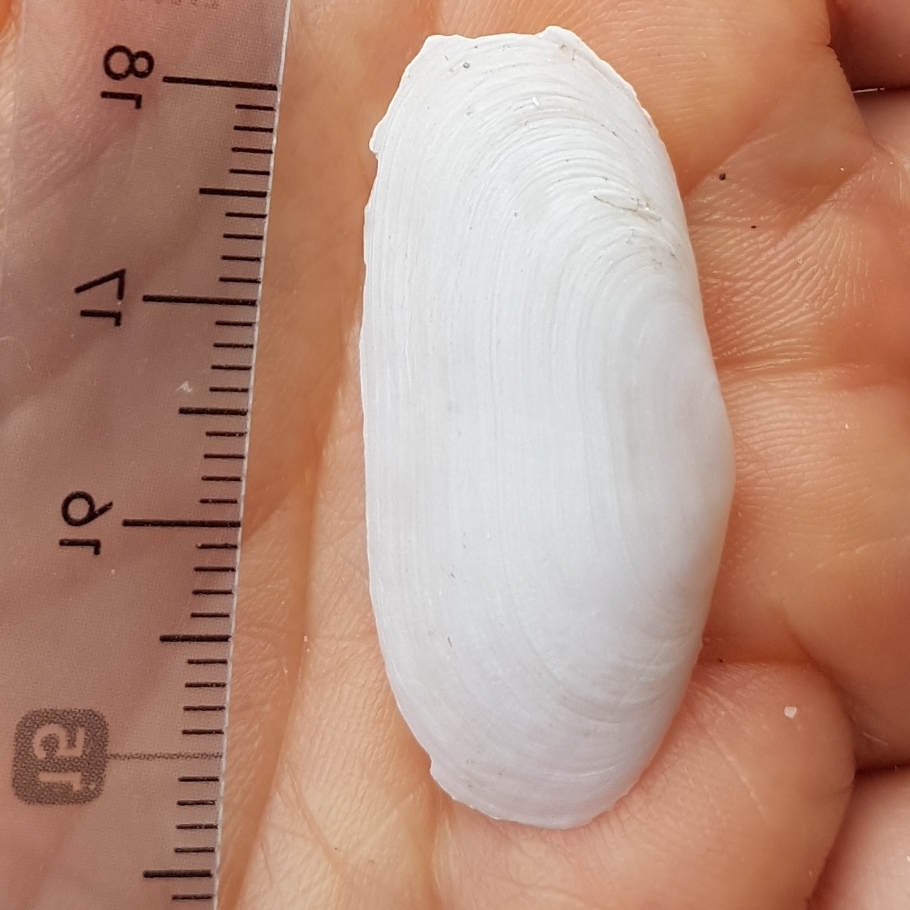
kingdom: Animalia
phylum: Mollusca
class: Bivalvia
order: Cardiida
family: Solecurtidae
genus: Azorinus
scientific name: Azorinus chamasolen
